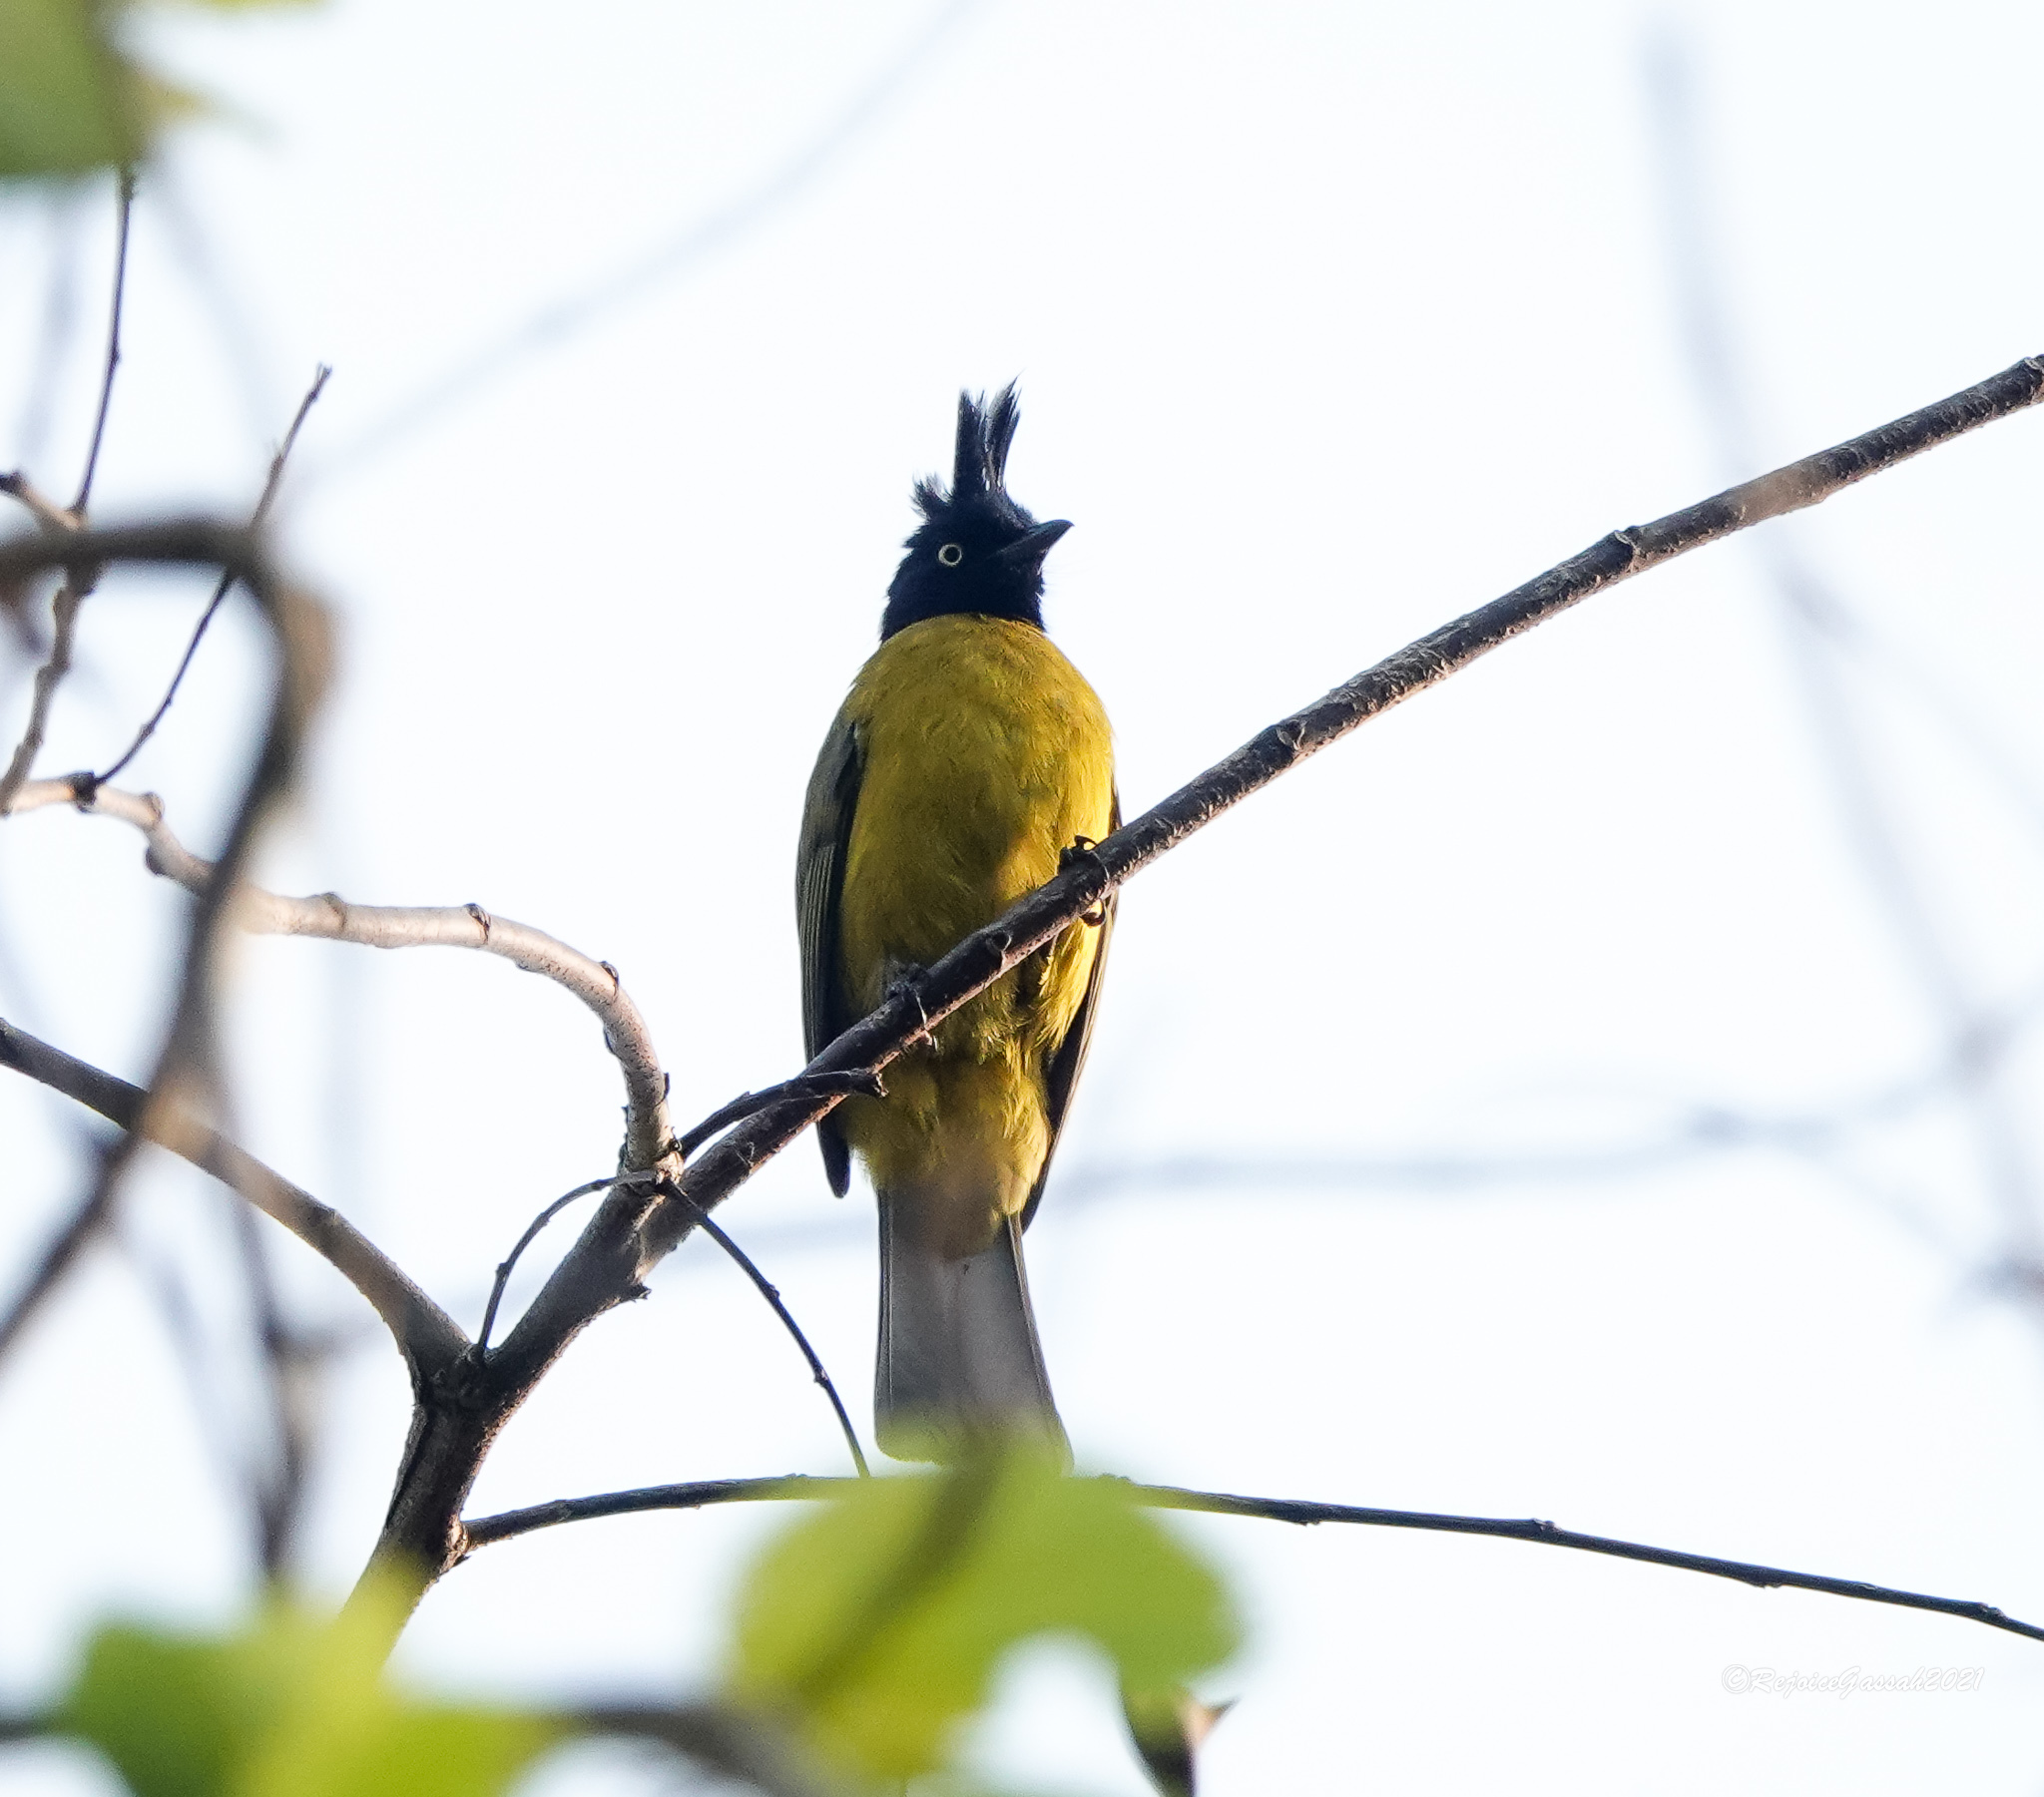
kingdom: Animalia
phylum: Chordata
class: Aves
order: Passeriformes
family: Pycnonotidae
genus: Pycnonotus
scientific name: Pycnonotus flaviventris
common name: Black-crested bulbul
